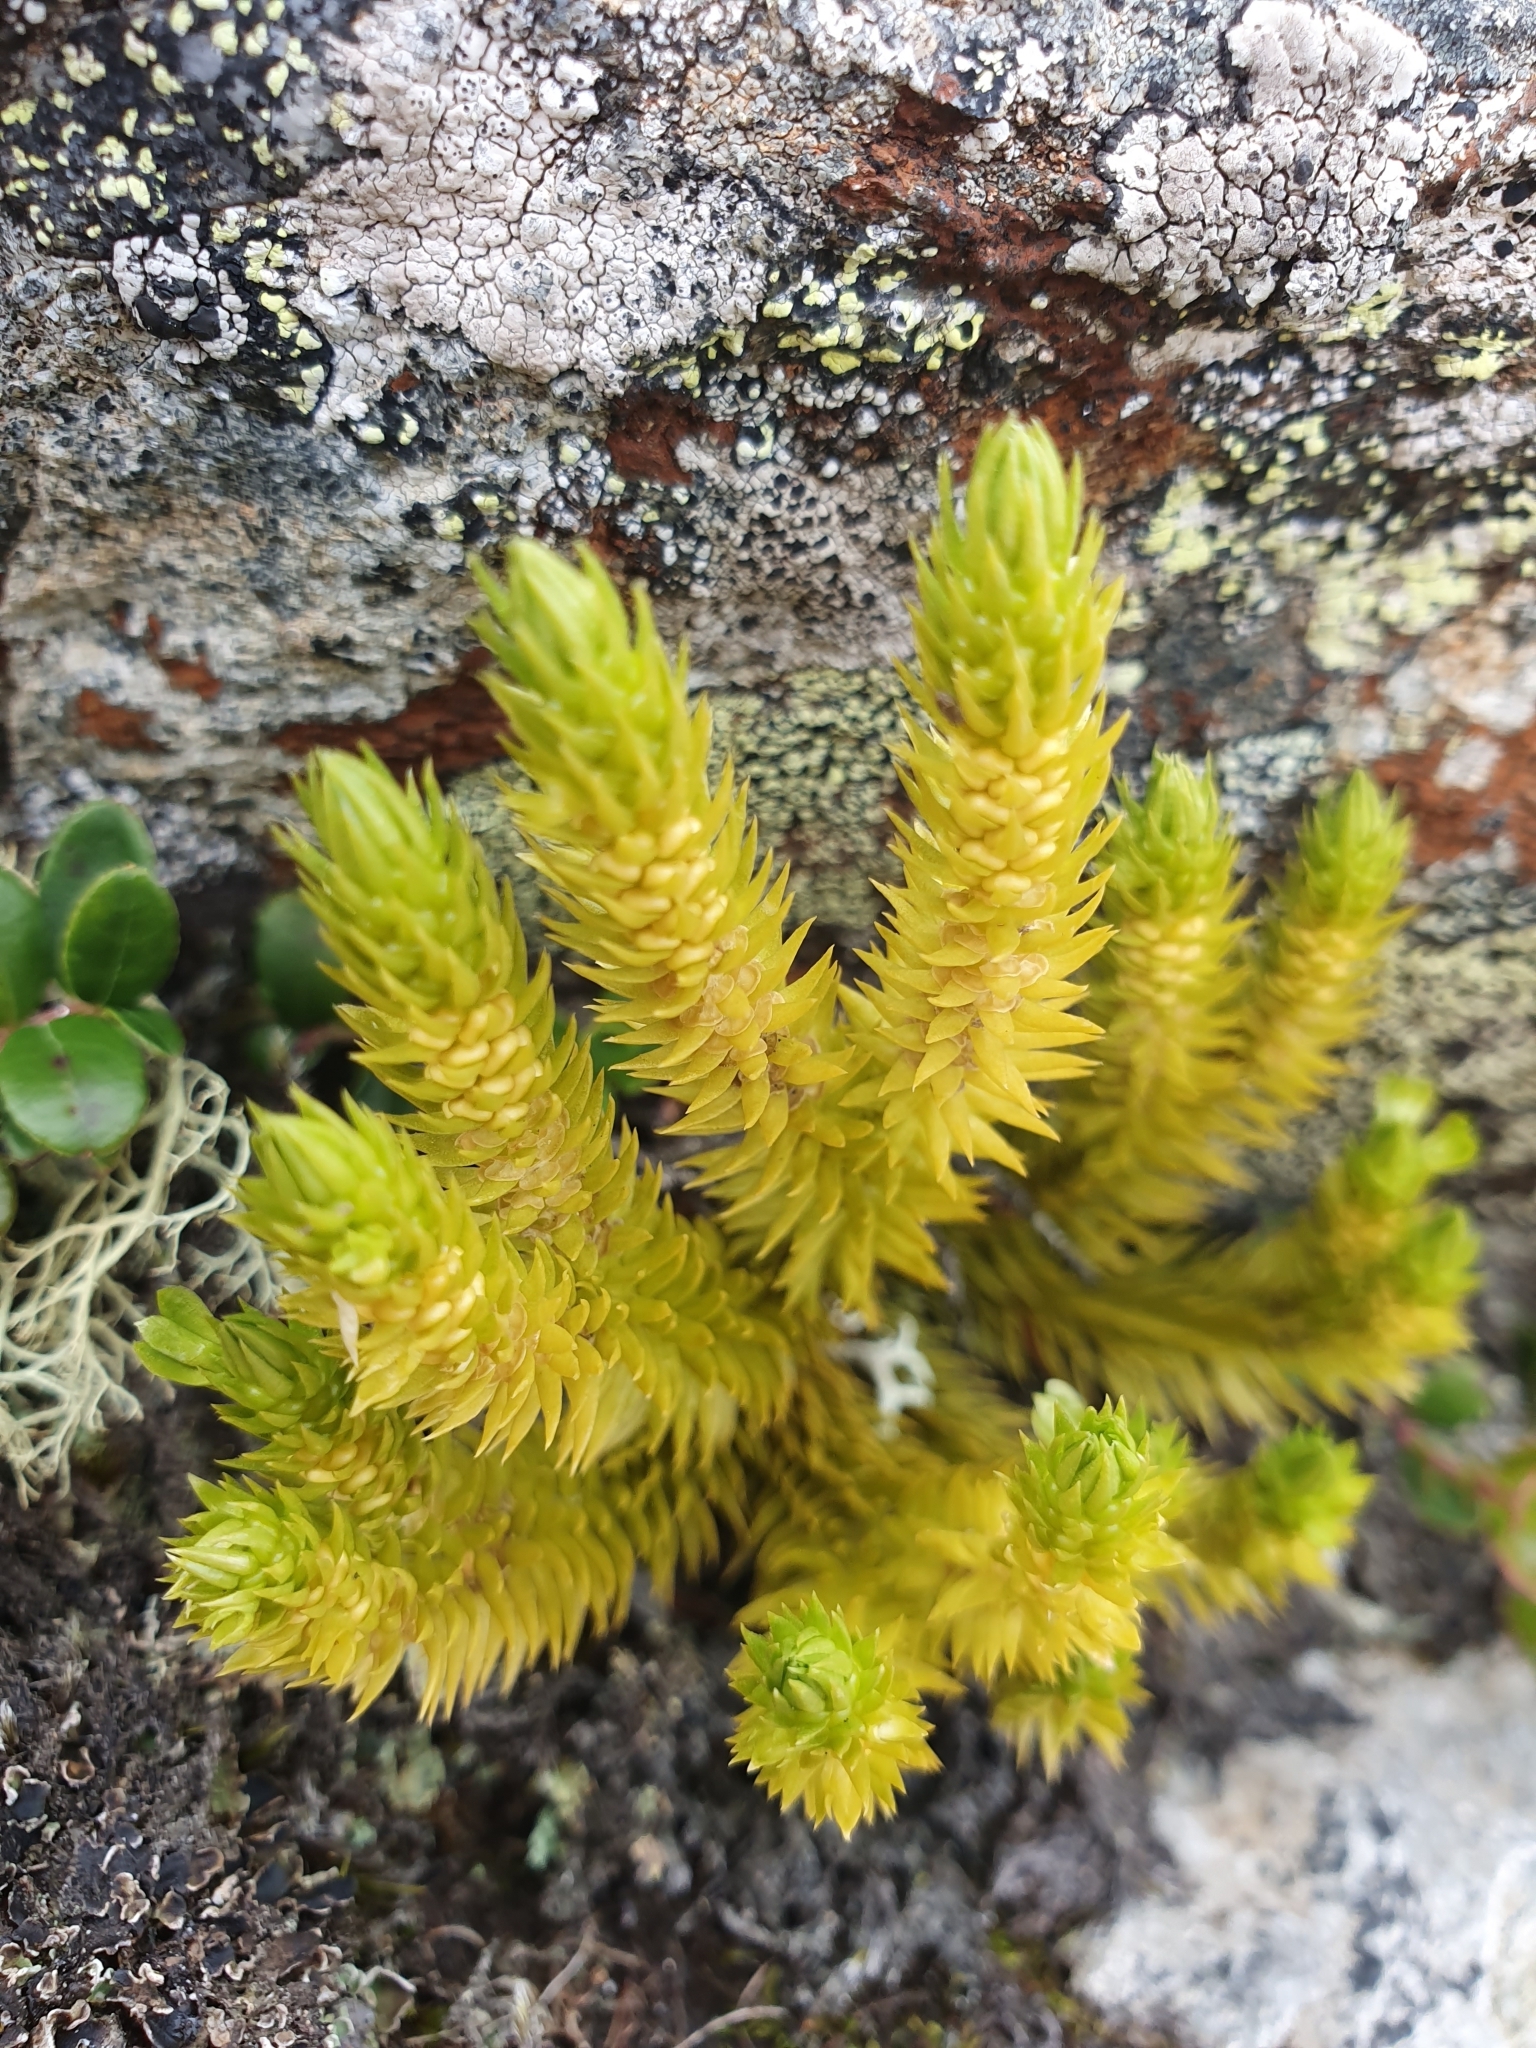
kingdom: Plantae
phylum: Tracheophyta
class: Lycopodiopsida
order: Lycopodiales
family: Lycopodiaceae
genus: Huperzia
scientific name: Huperzia selago
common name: Northern firmoss
